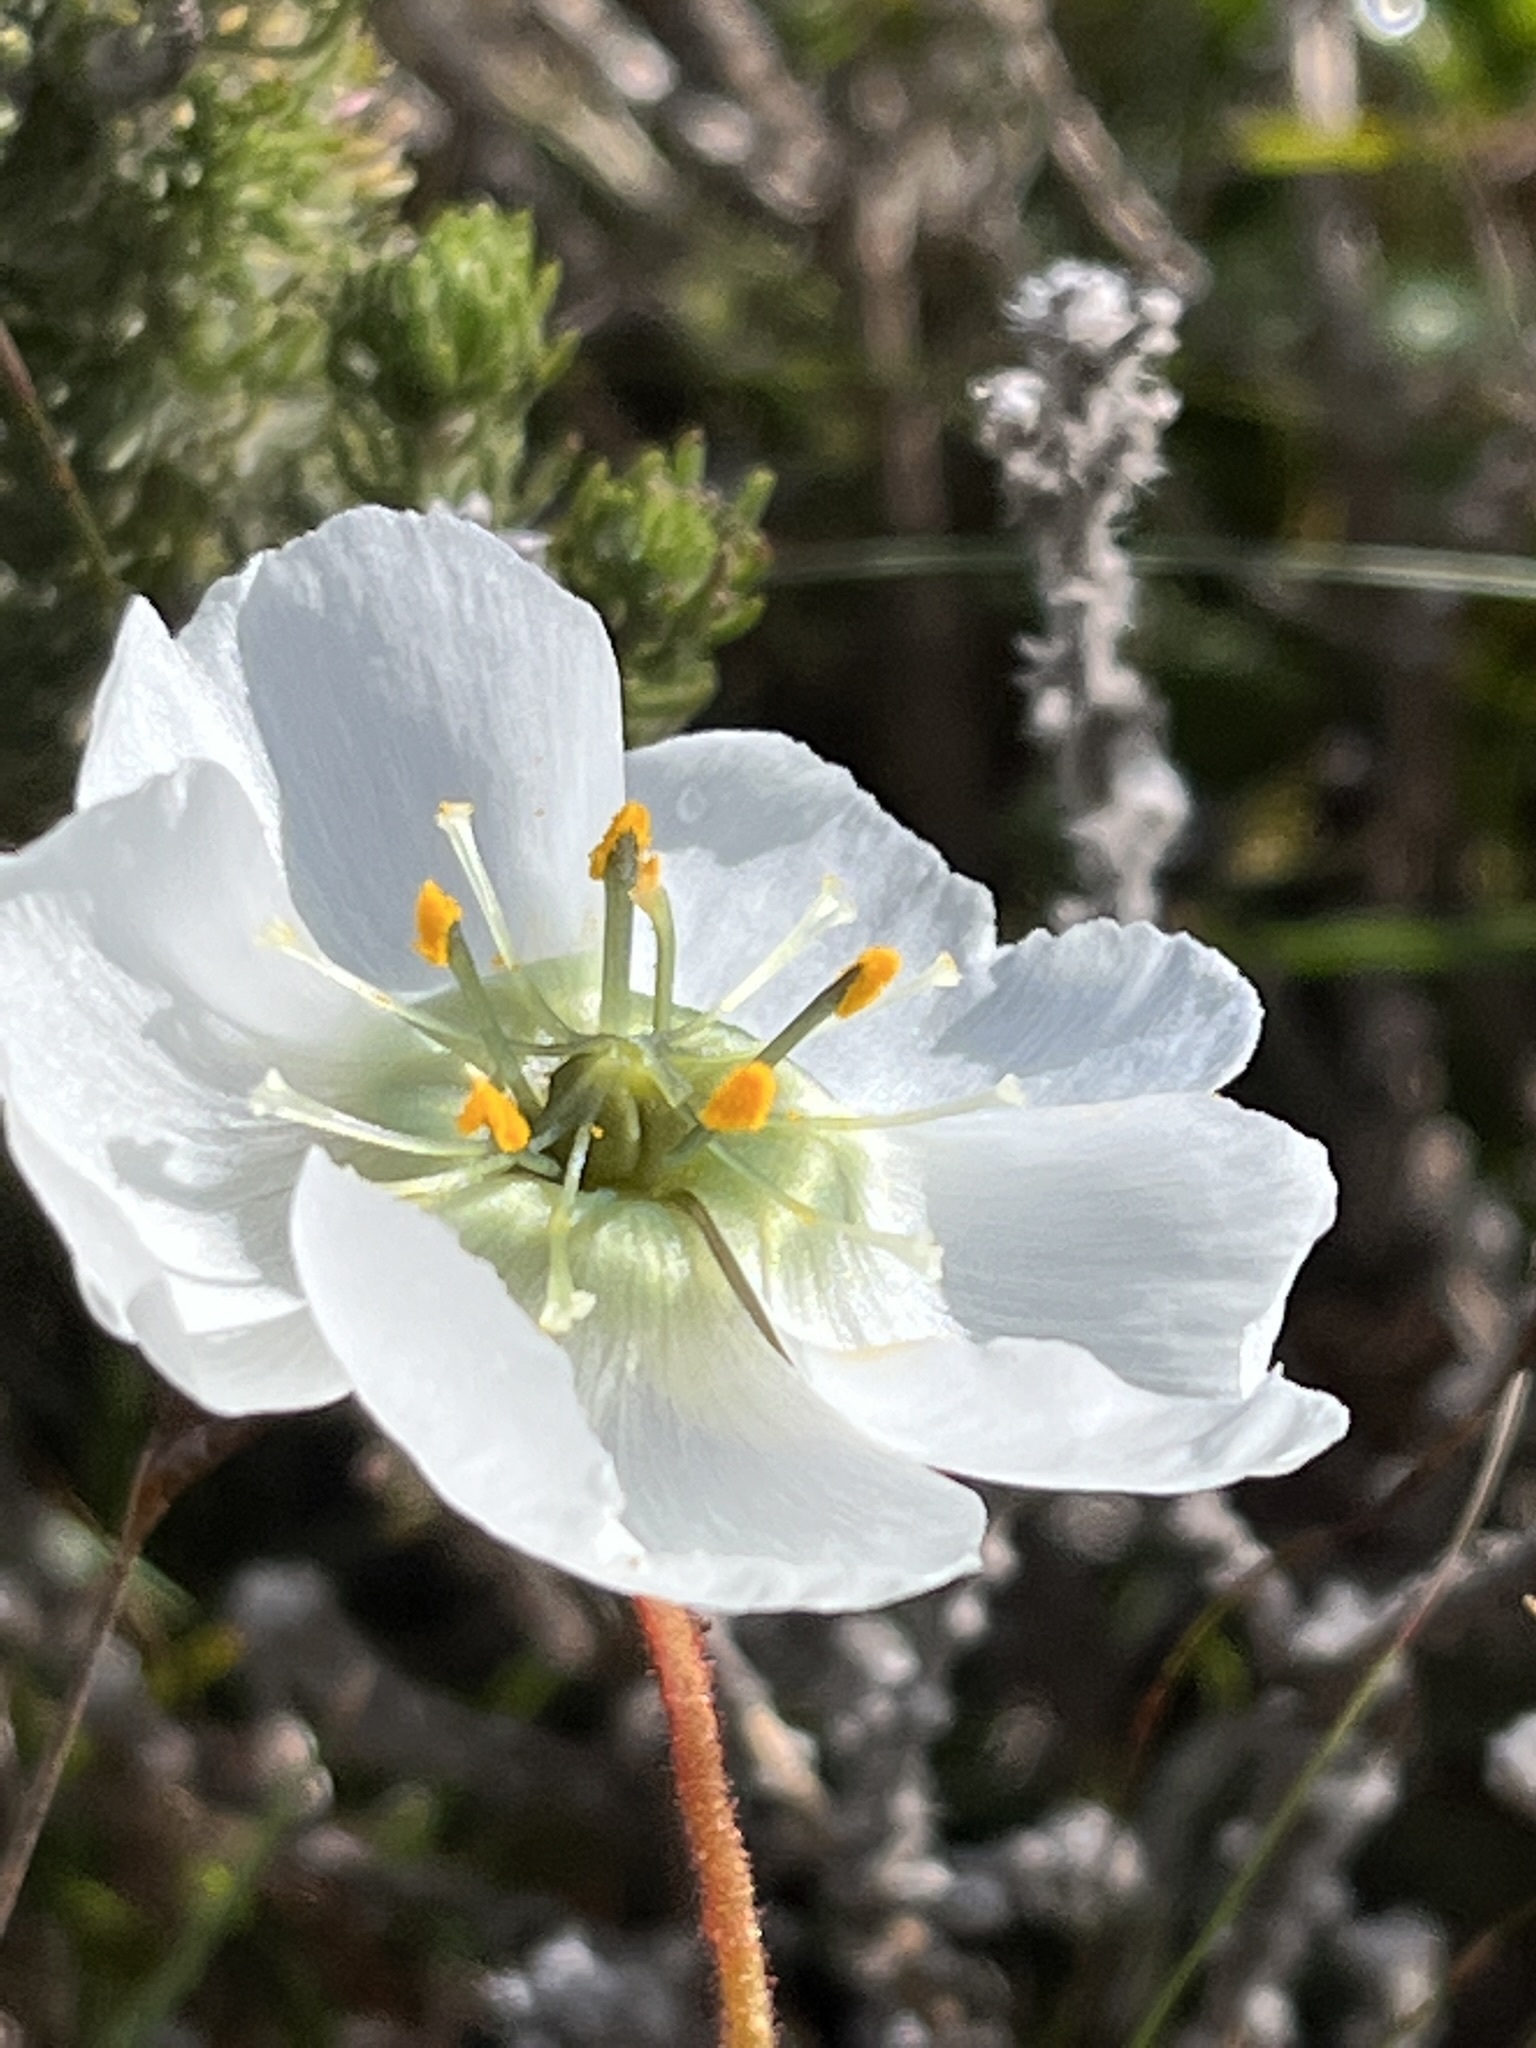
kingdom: Plantae
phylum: Tracheophyta
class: Magnoliopsida
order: Caryophyllales
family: Droseraceae
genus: Drosera
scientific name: Drosera cistiflora
